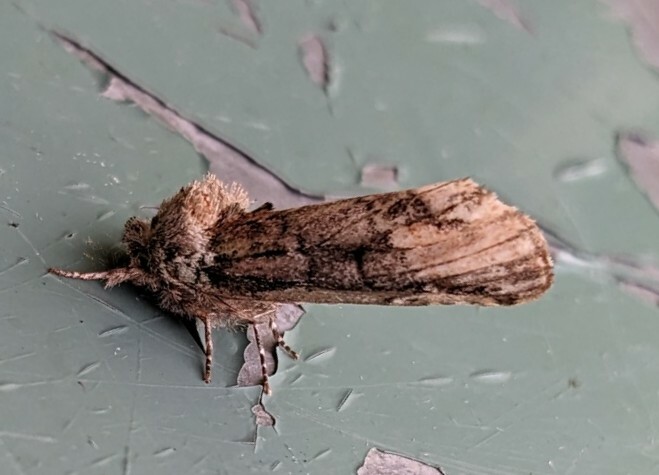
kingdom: Animalia
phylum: Arthropoda
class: Insecta
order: Lepidoptera
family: Notodontidae
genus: Schizura
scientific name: Schizura
